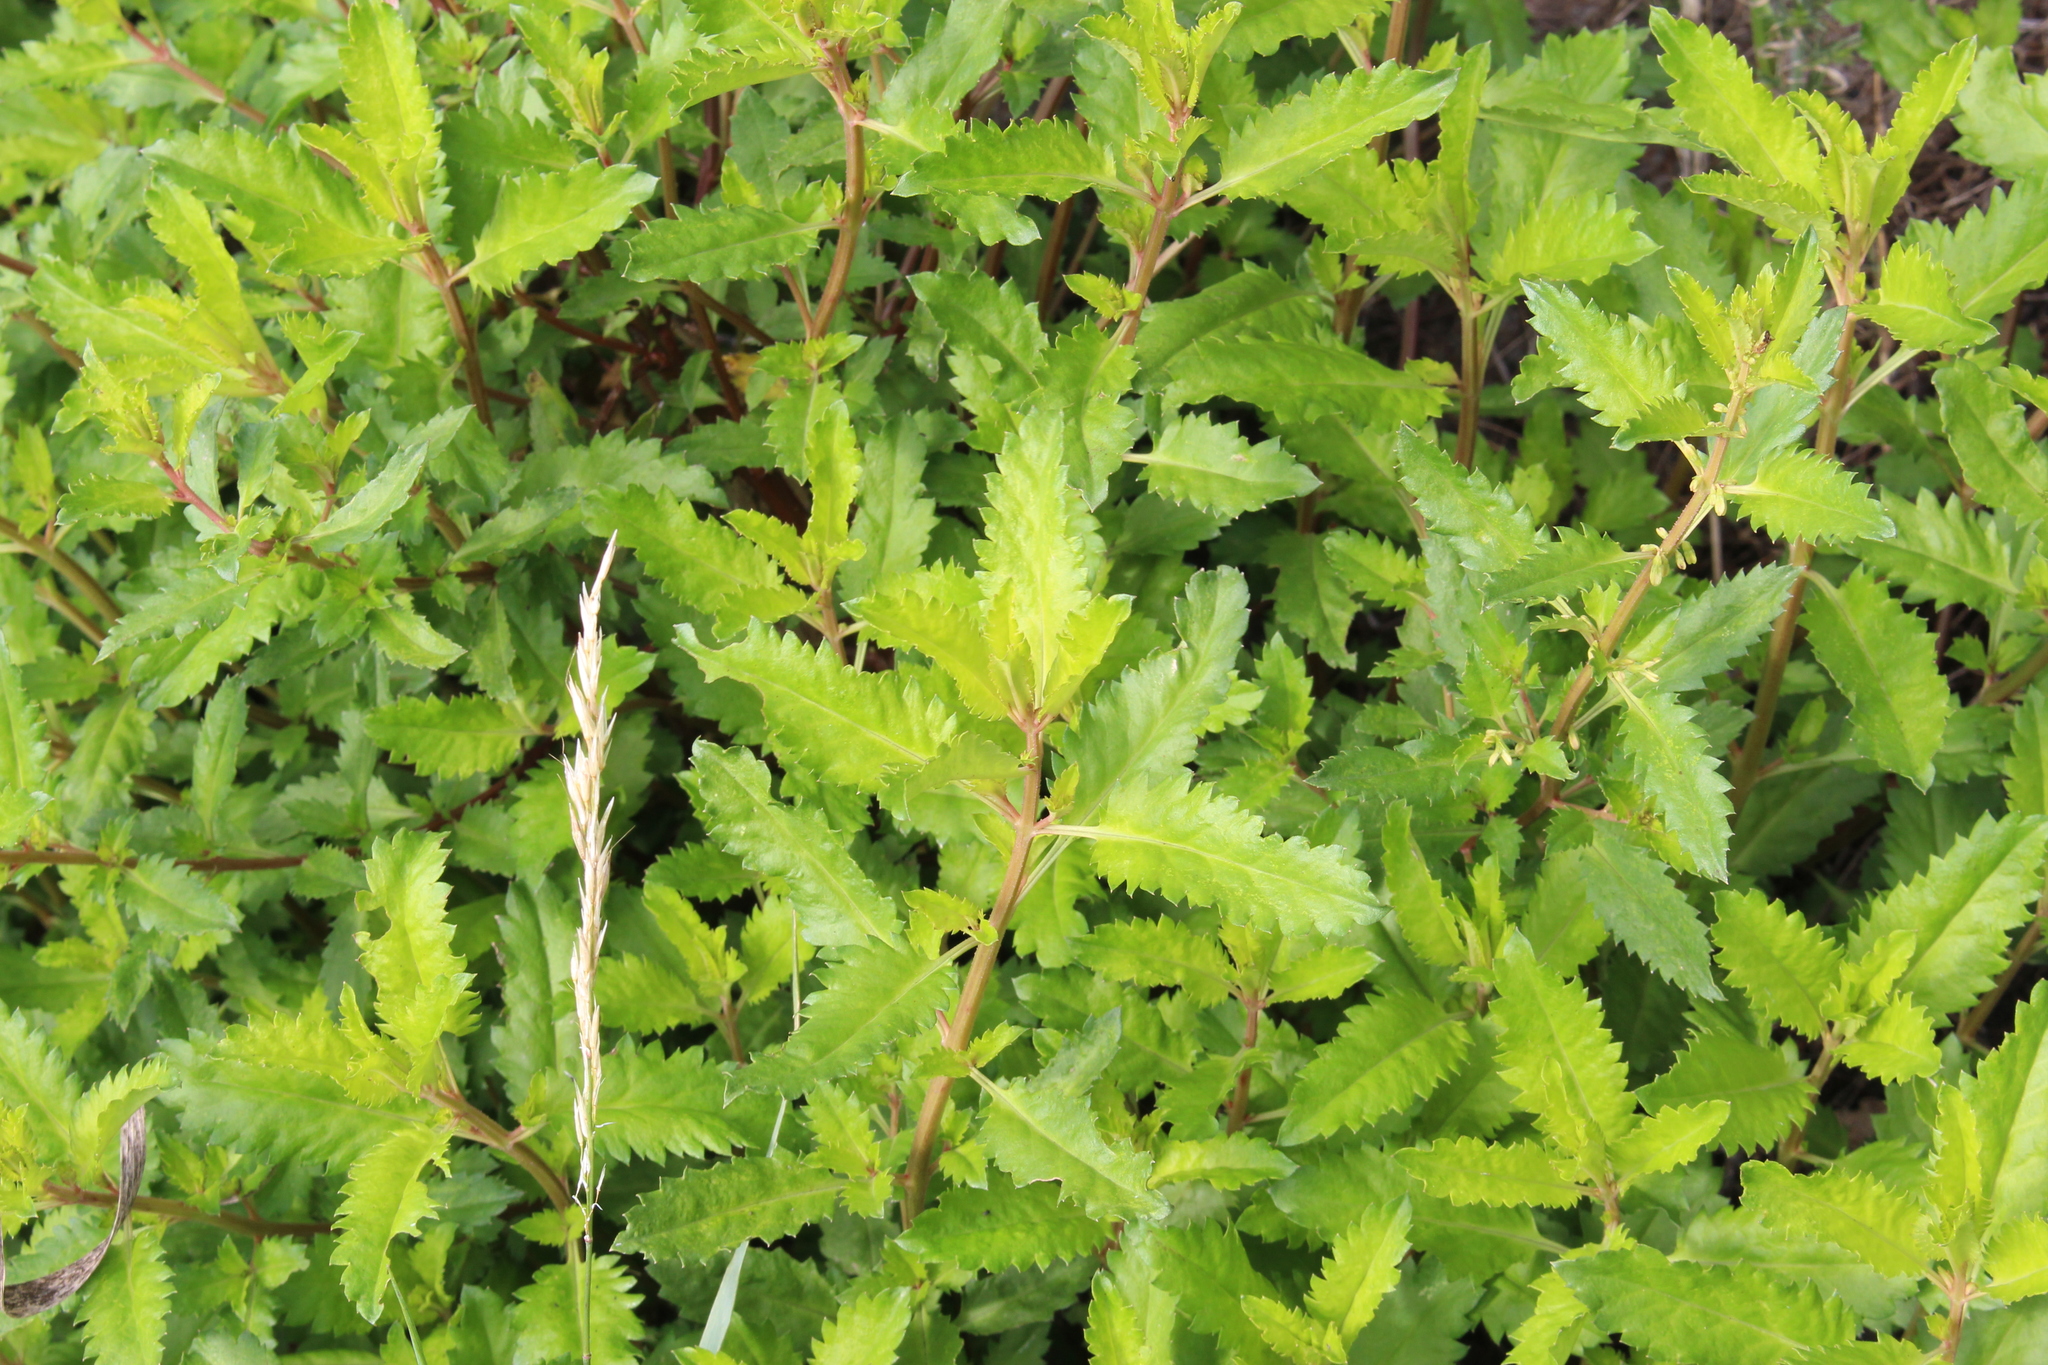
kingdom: Plantae
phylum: Tracheophyta
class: Magnoliopsida
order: Saxifragales
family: Haloragaceae
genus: Haloragis
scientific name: Haloragis erecta
